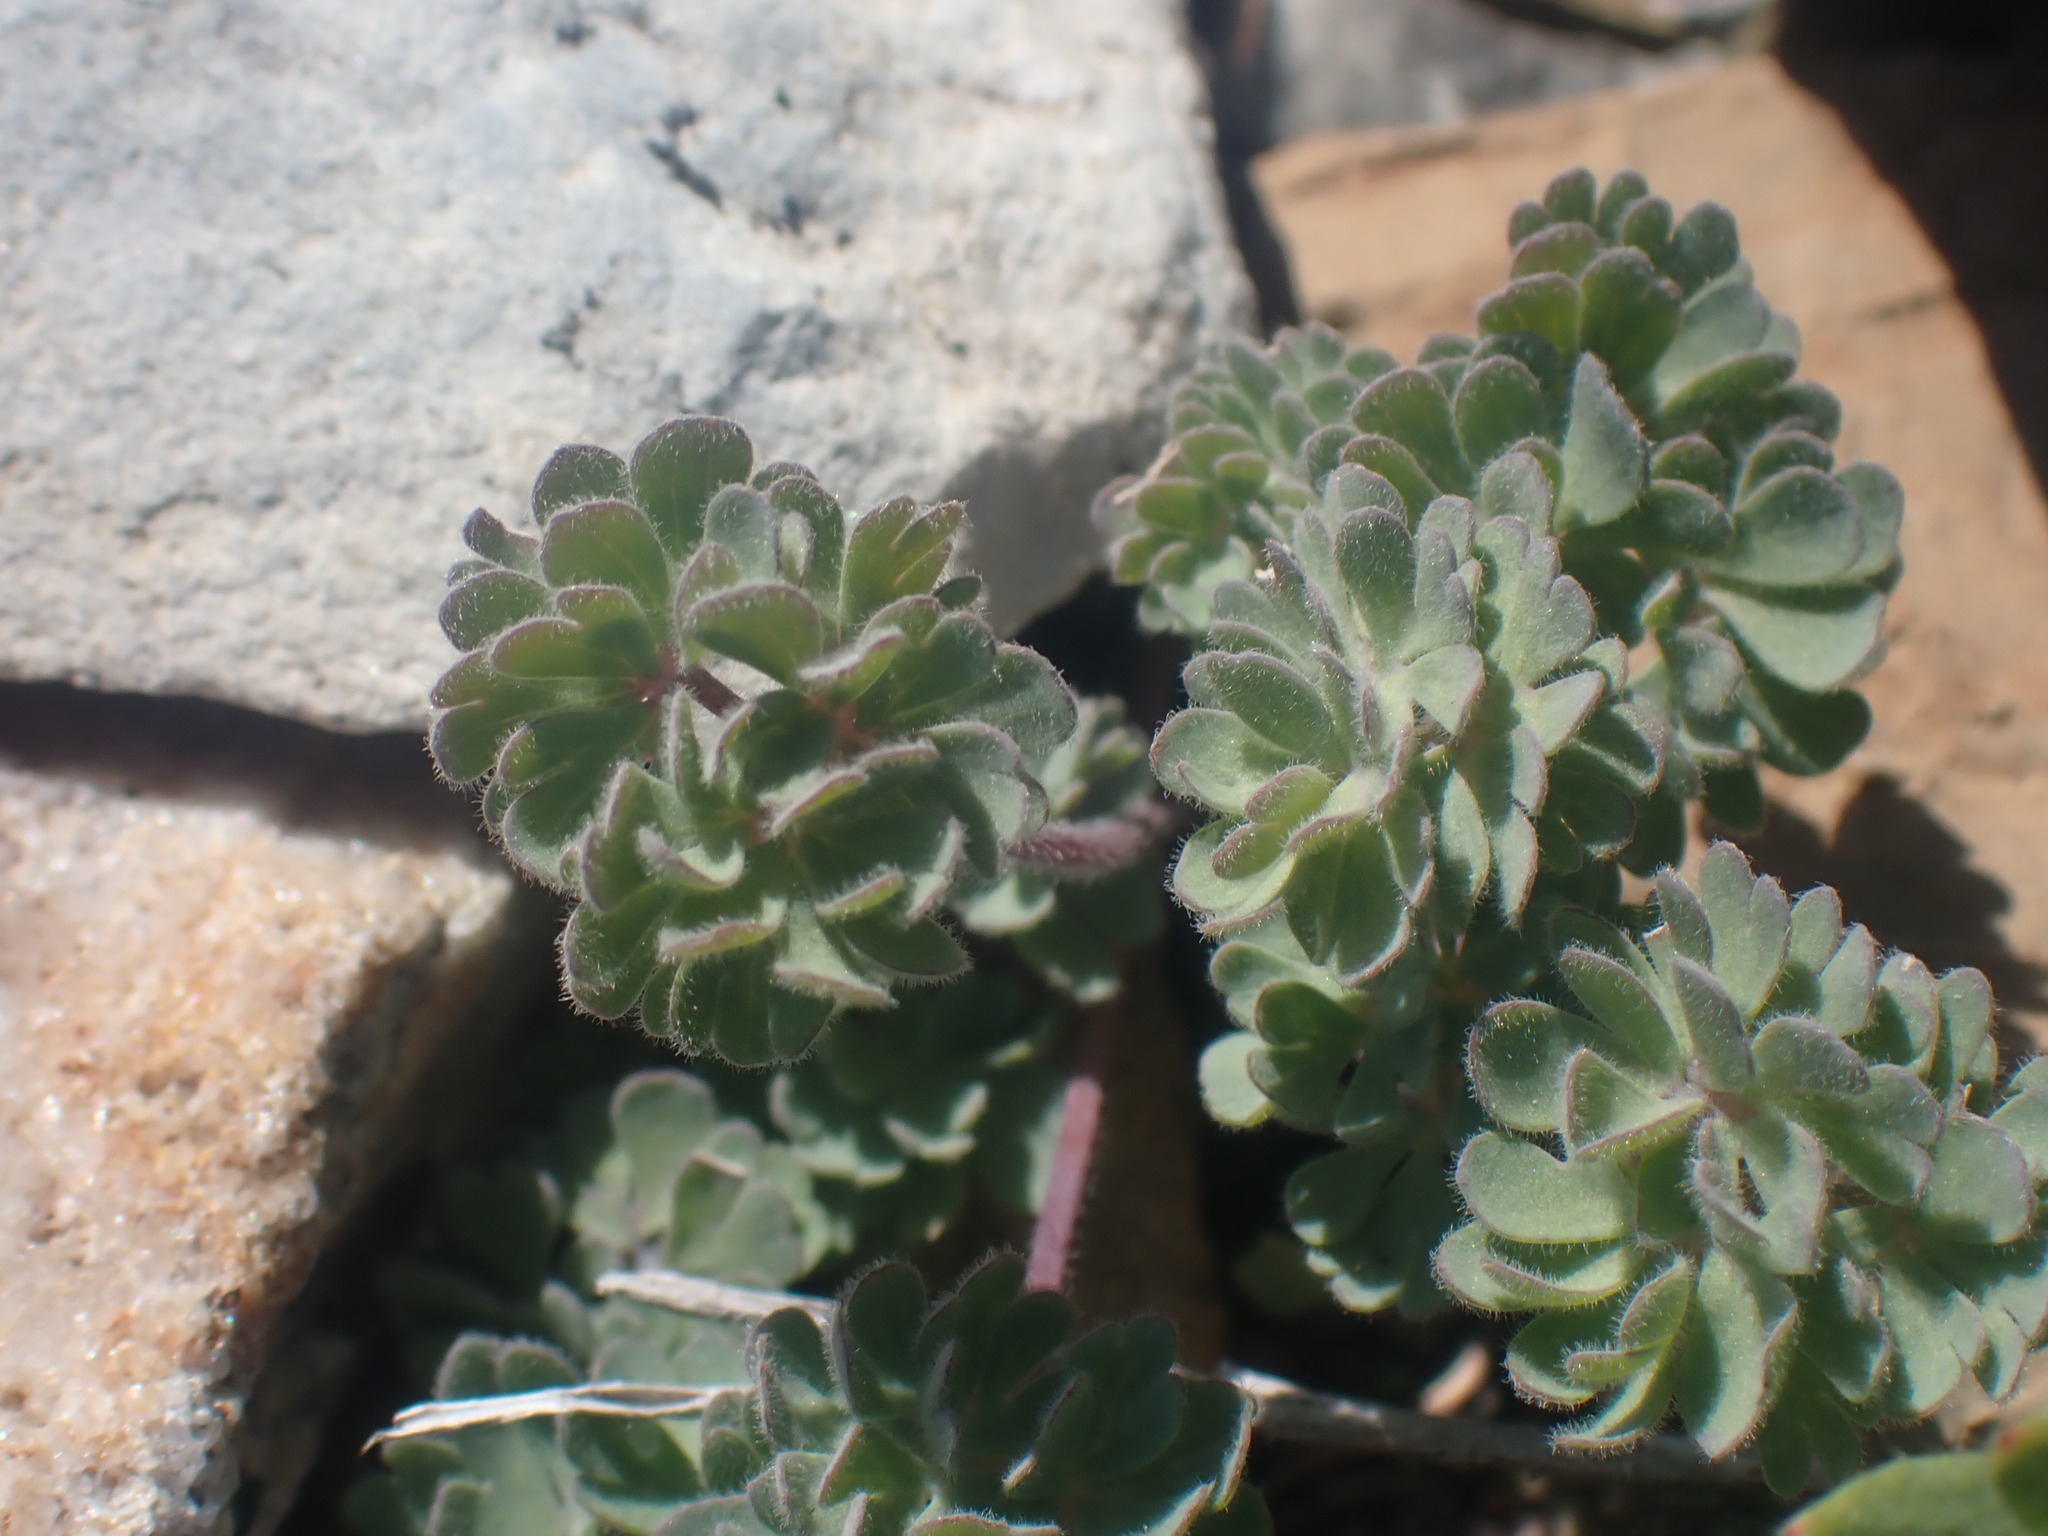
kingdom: Plantae
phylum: Tracheophyta
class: Magnoliopsida
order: Ranunculales
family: Ranunculaceae
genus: Aquilegia
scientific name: Aquilegia jonesii
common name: Jones' columbine
